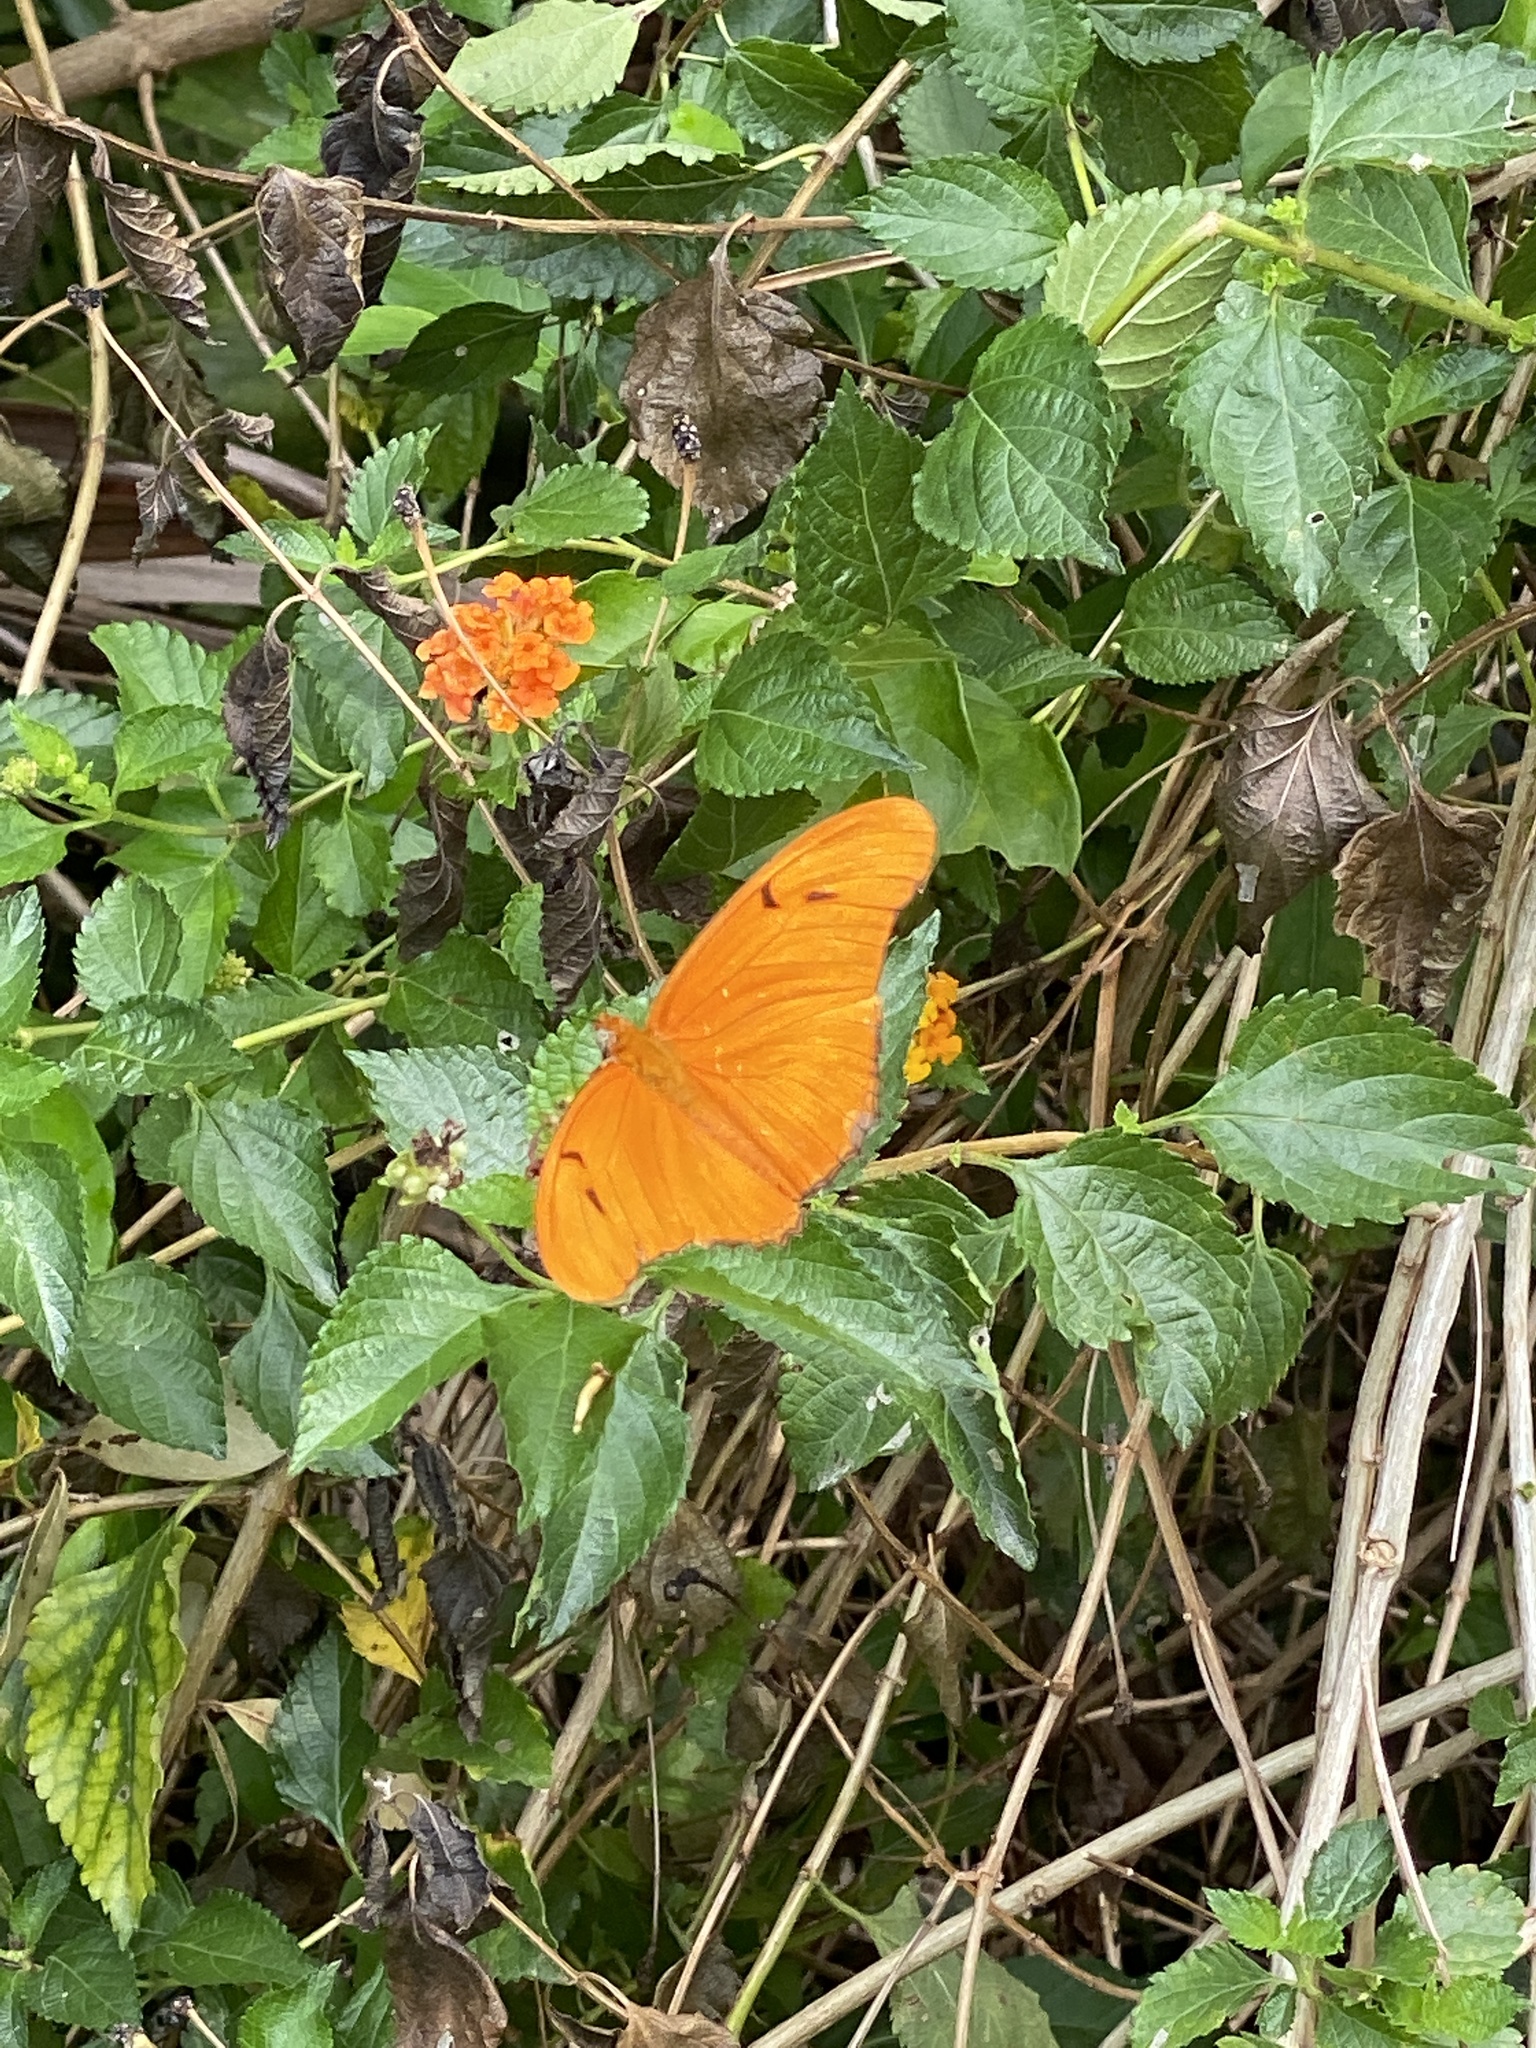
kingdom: Animalia
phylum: Arthropoda
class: Insecta
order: Lepidoptera
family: Nymphalidae
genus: Dryas
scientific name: Dryas iulia
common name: Flambeau
